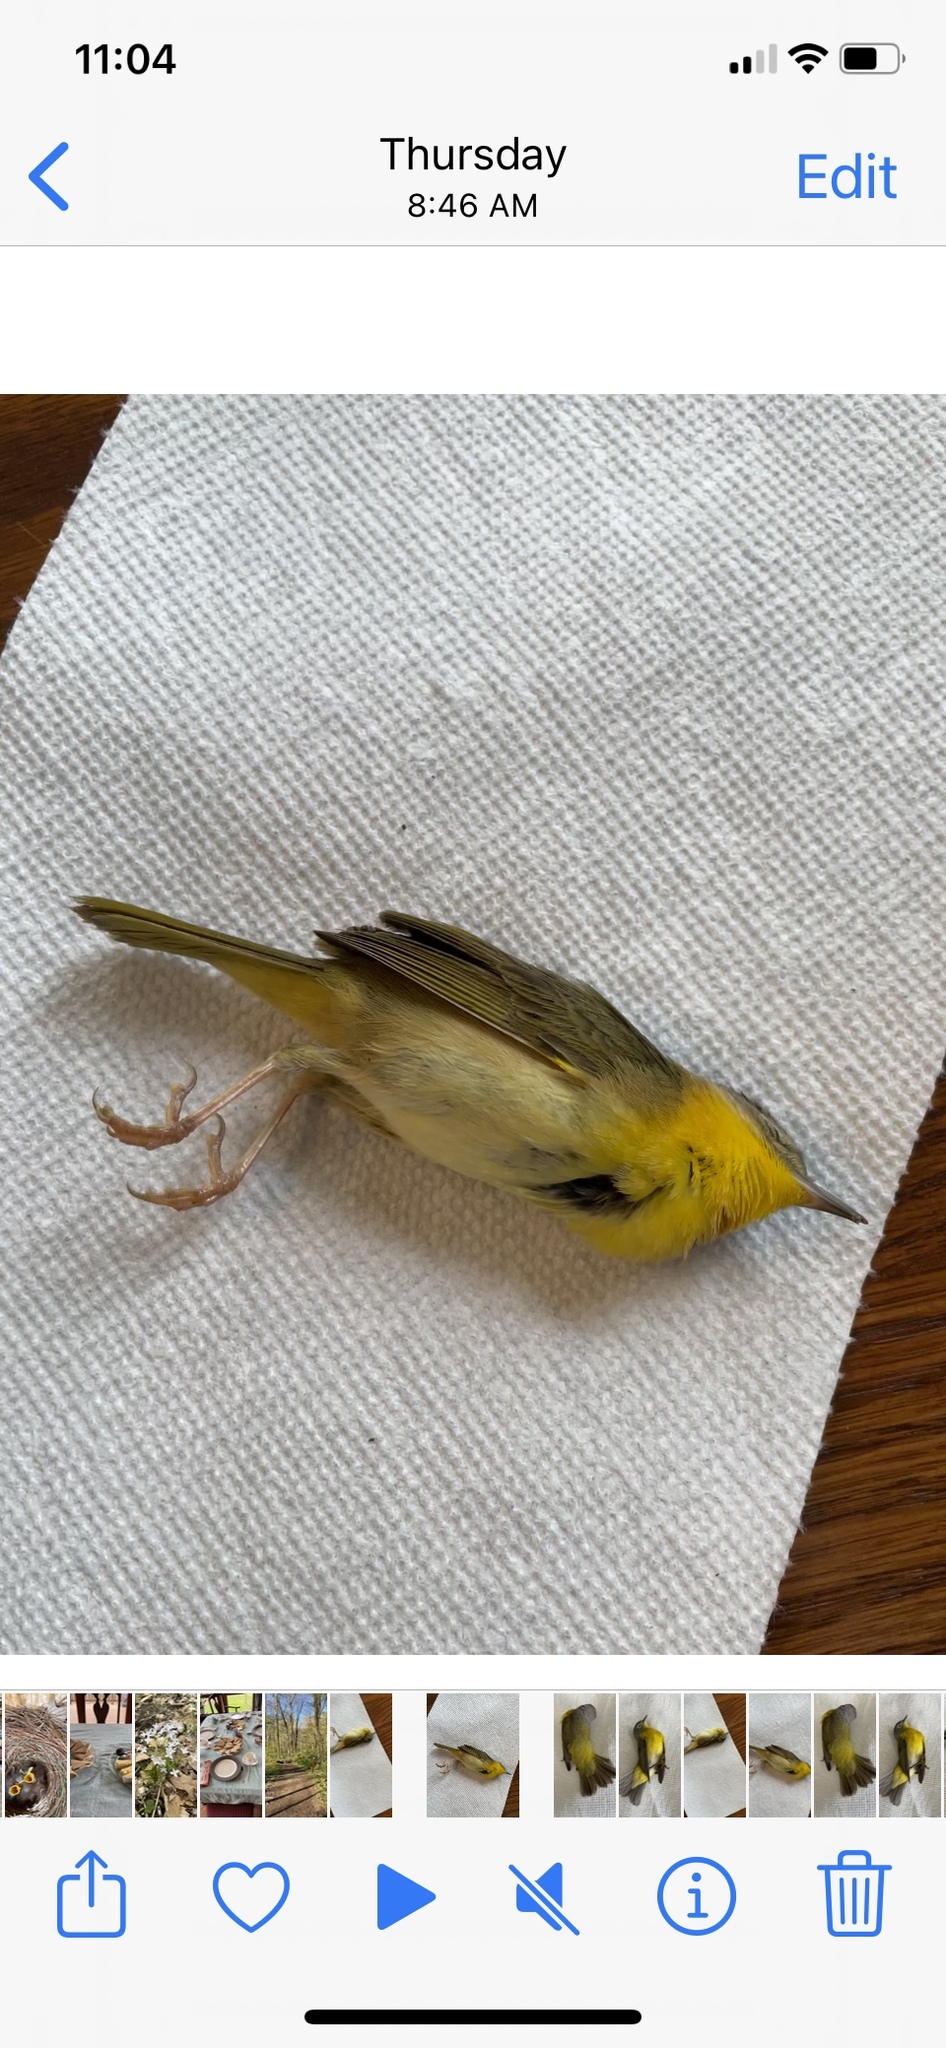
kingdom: Animalia
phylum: Chordata
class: Aves
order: Passeriformes
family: Parulidae
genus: Geothlypis
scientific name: Geothlypis trichas
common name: Common yellowthroat
